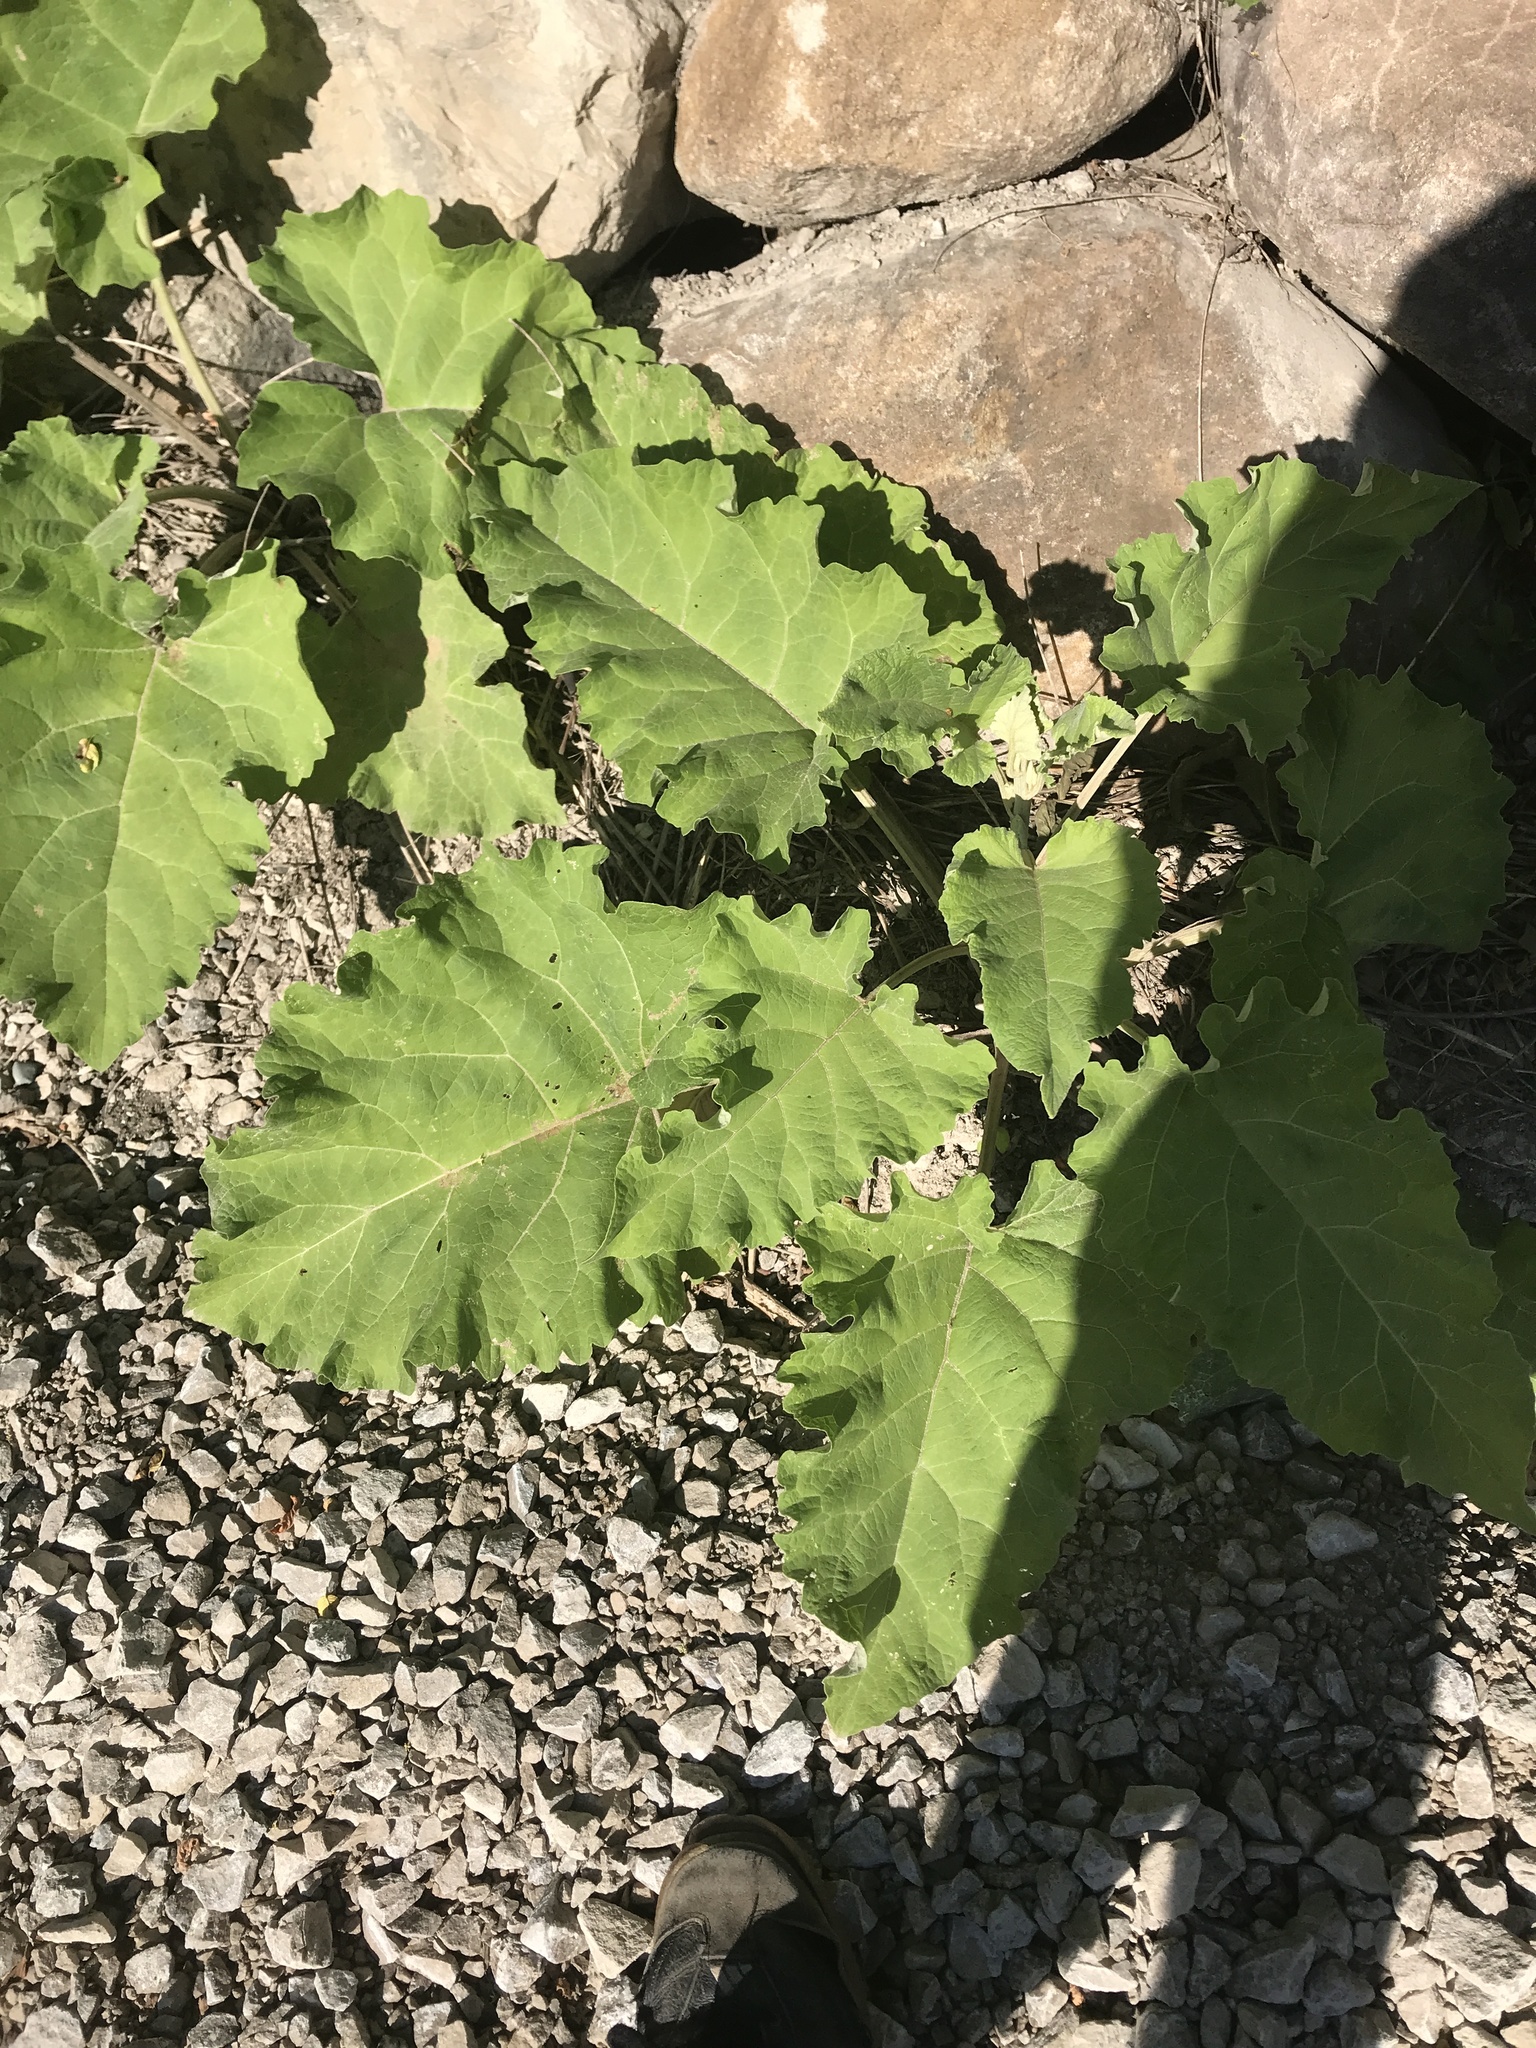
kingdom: Plantae
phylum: Tracheophyta
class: Magnoliopsida
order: Asterales
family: Asteraceae
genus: Arctium
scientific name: Arctium
